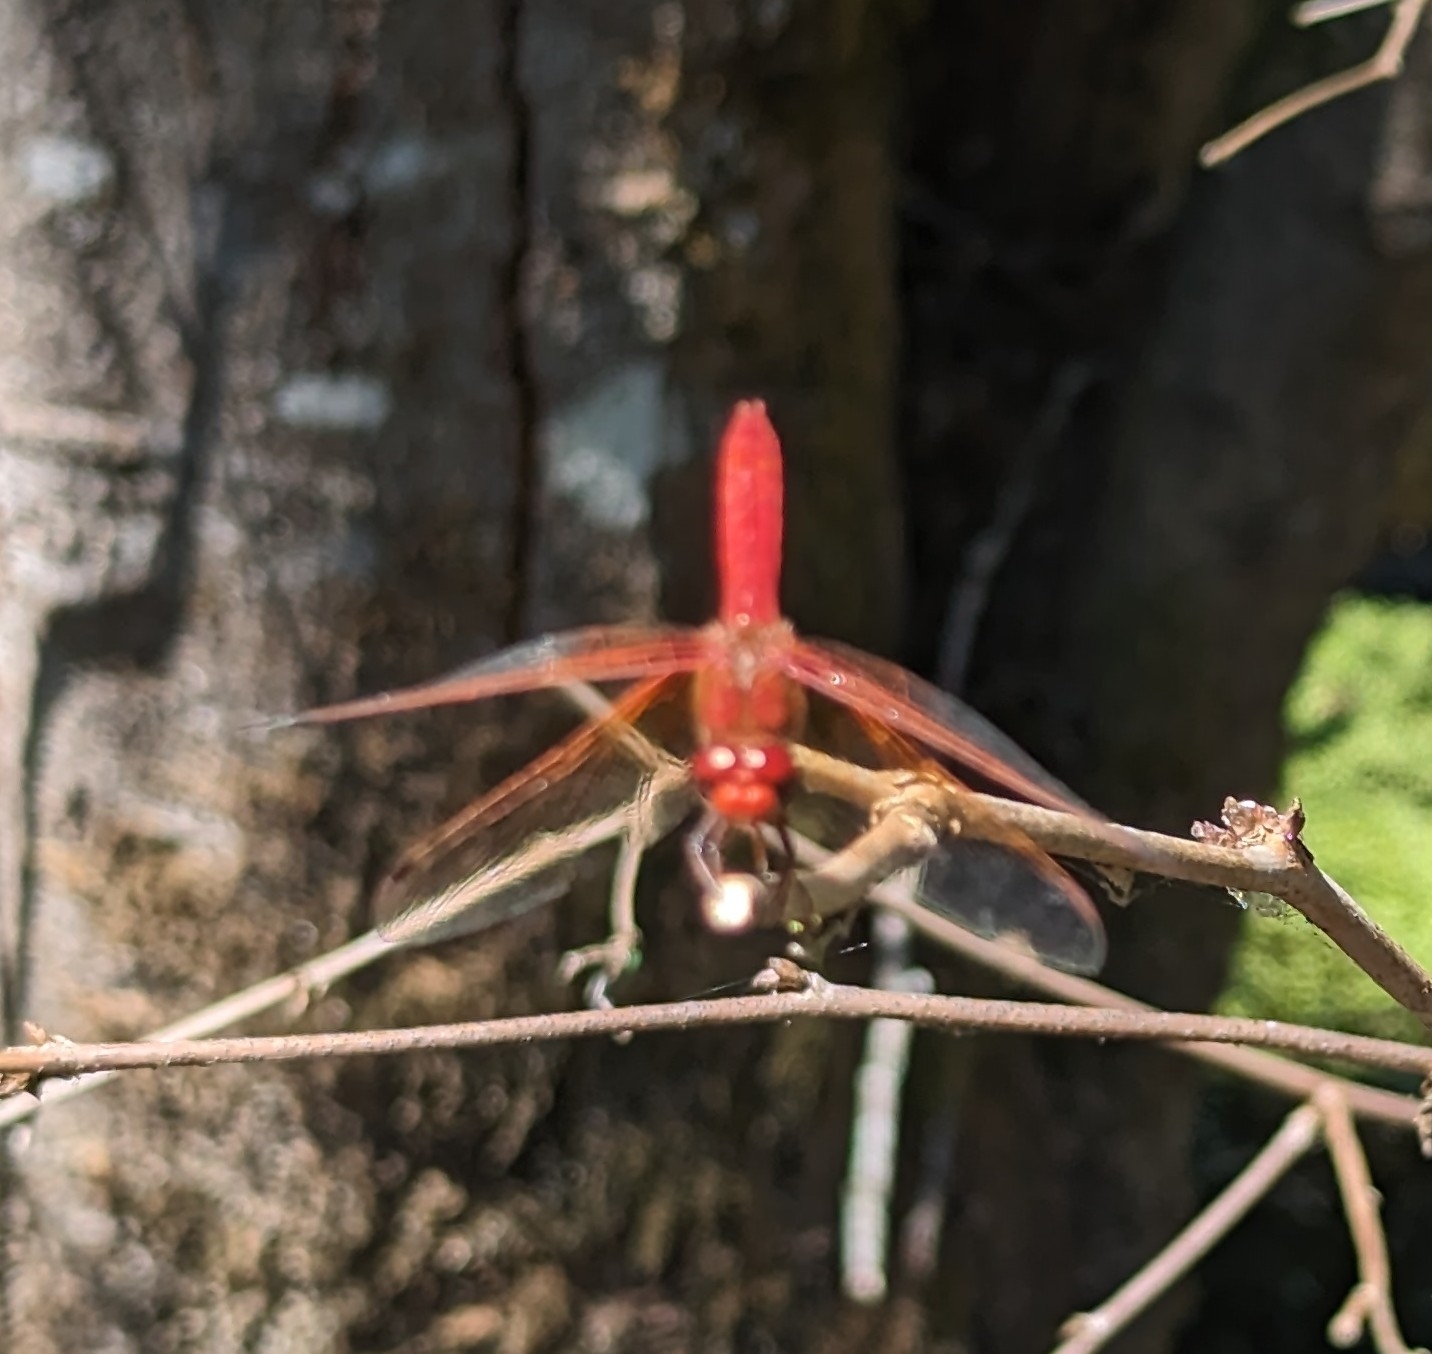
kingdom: Animalia
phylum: Arthropoda
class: Insecta
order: Odonata
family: Libellulidae
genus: Sympetrum
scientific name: Sympetrum illotum
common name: Cardinal meadowhawk
